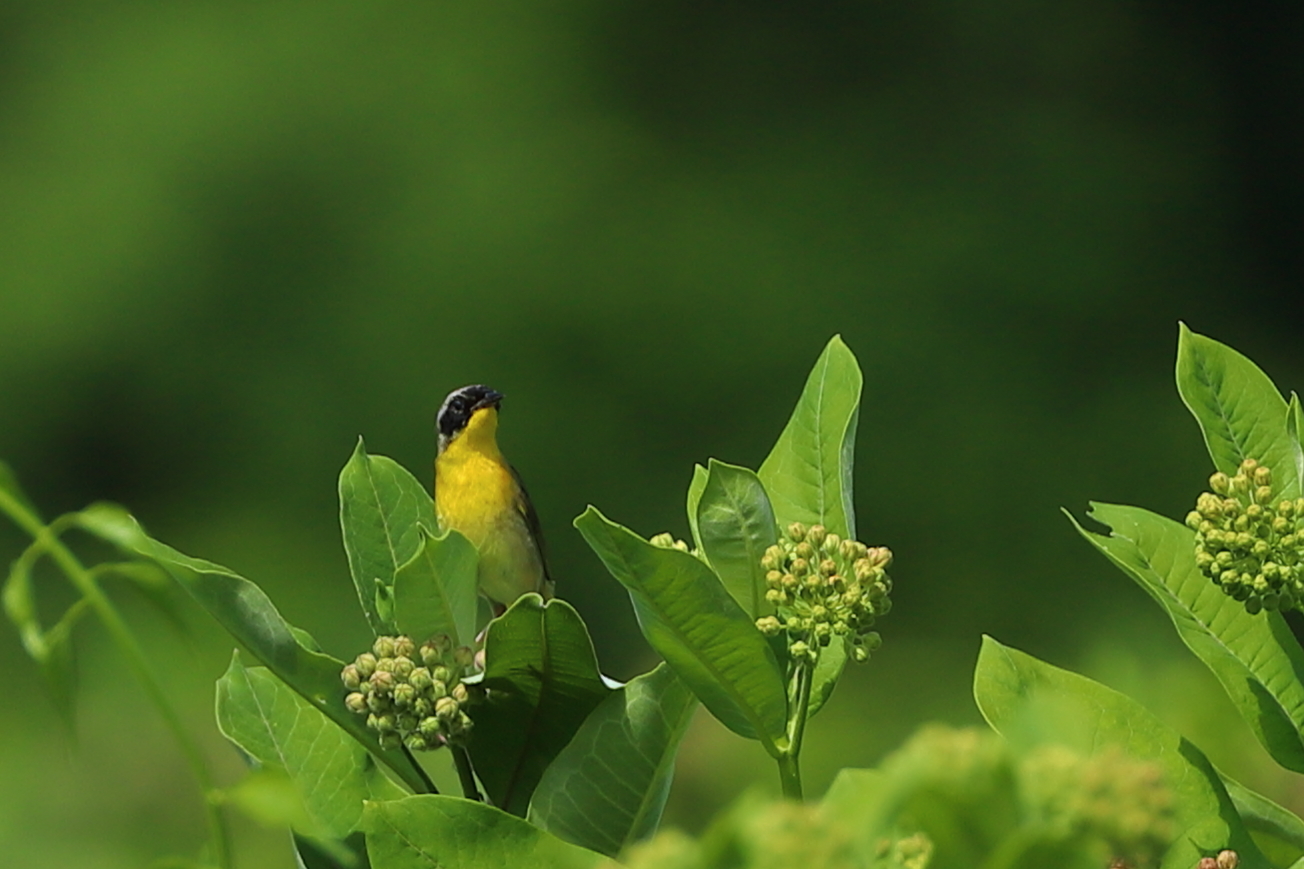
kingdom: Animalia
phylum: Chordata
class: Aves
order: Passeriformes
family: Parulidae
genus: Geothlypis
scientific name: Geothlypis trichas
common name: Common yellowthroat
